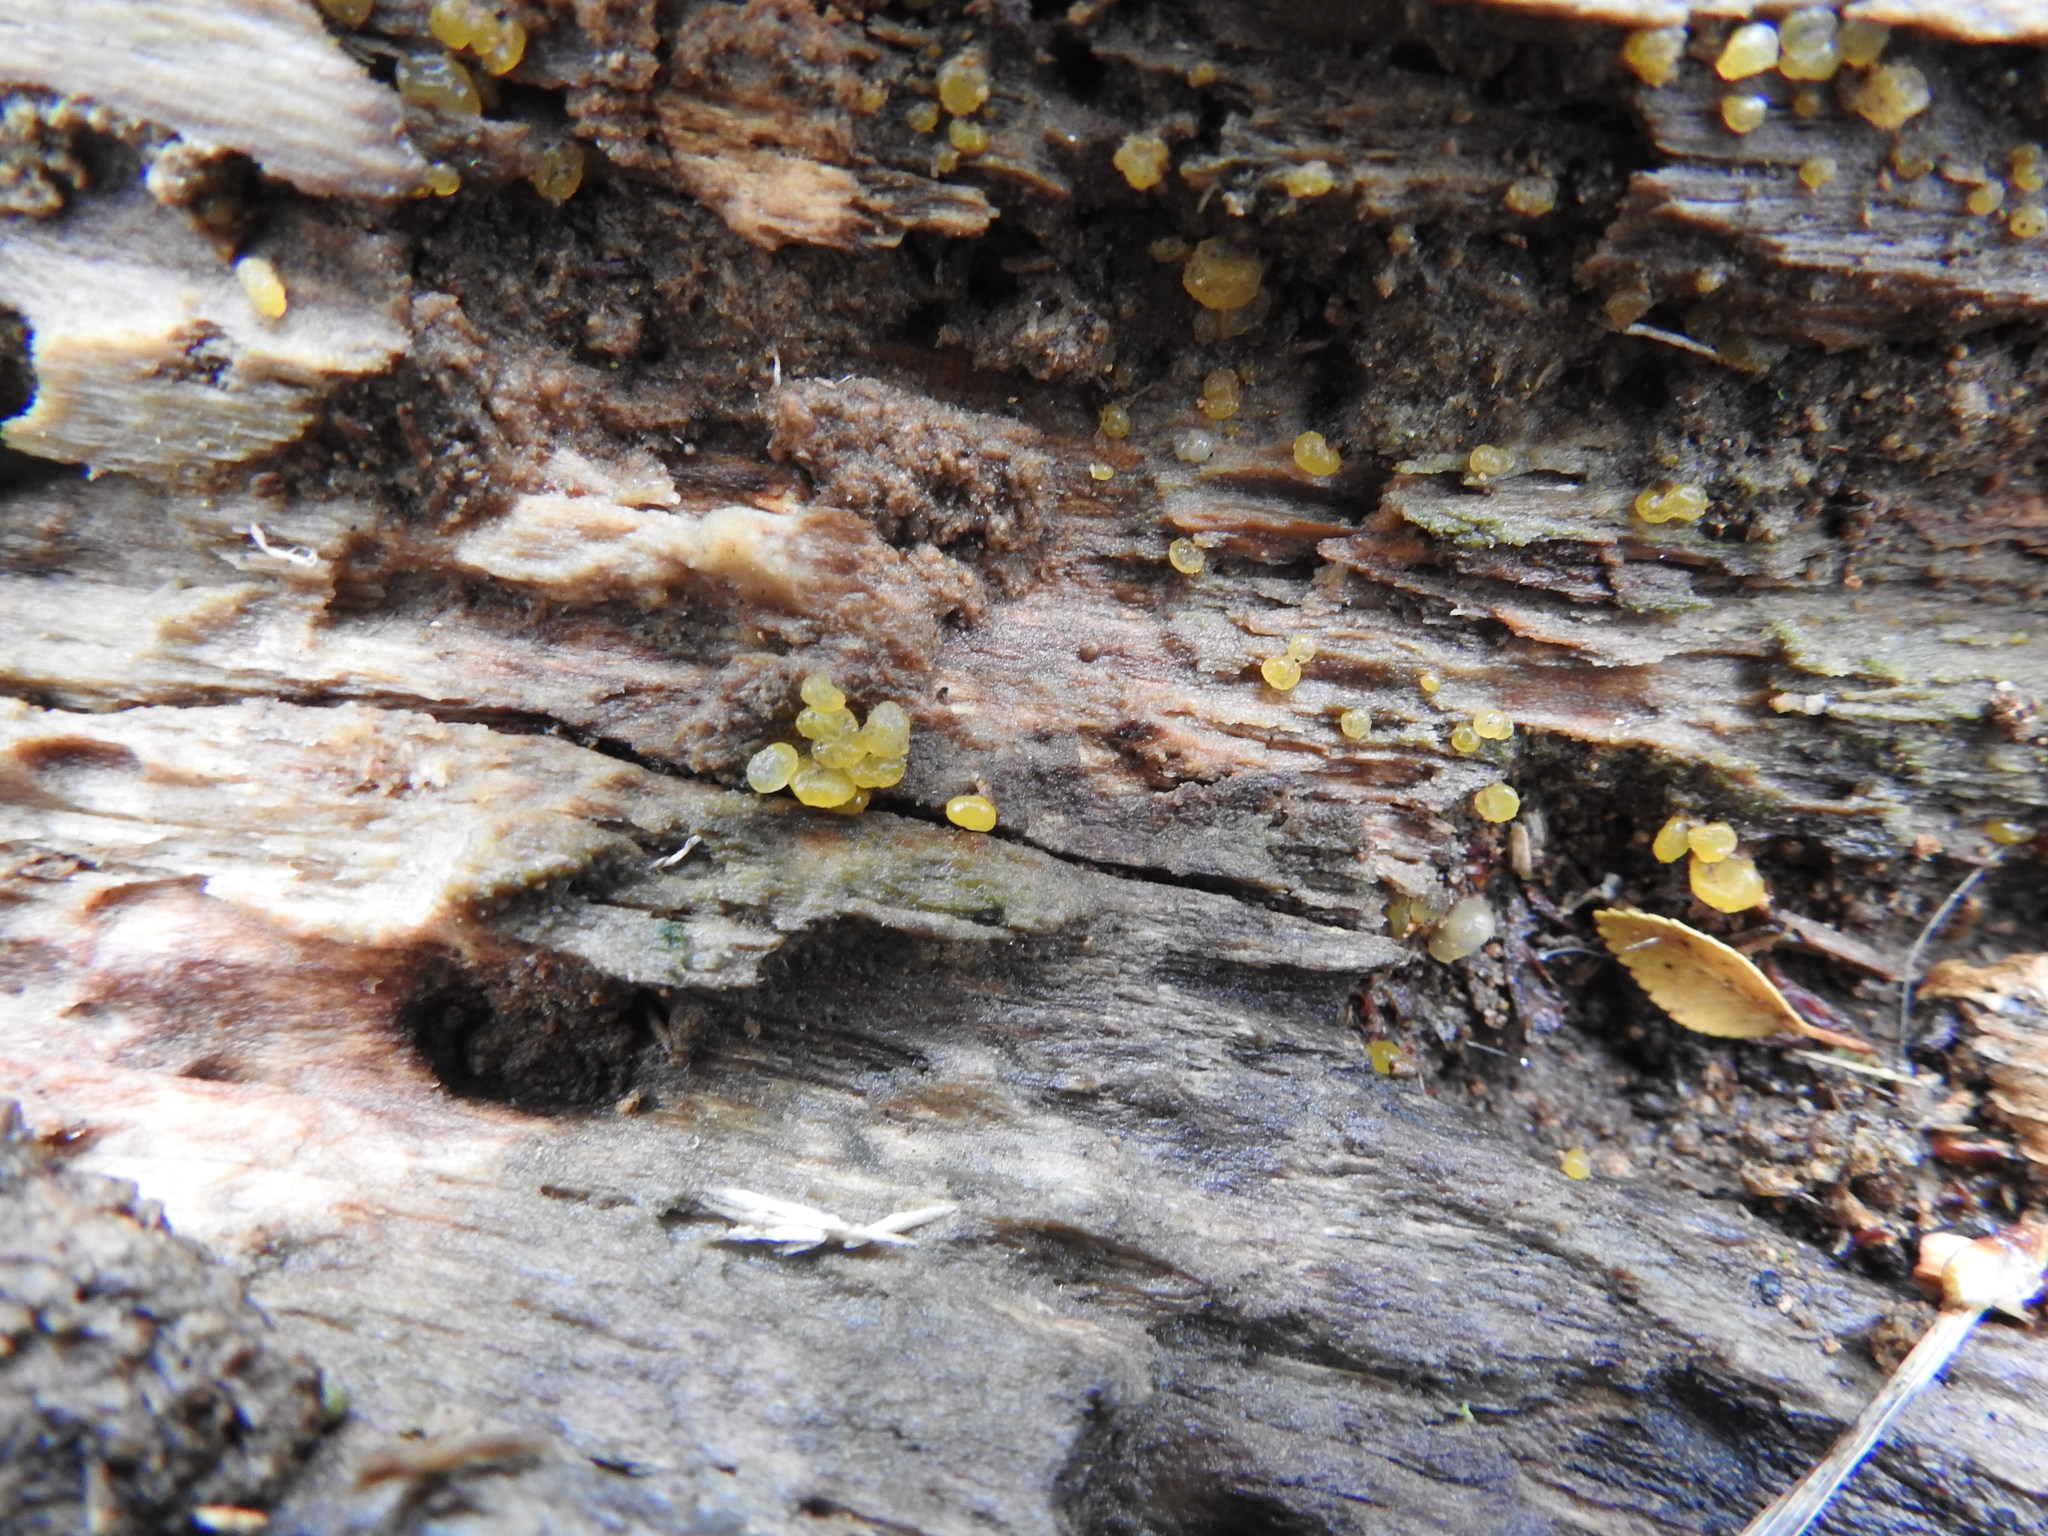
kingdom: Fungi
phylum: Ascomycota
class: Leotiomycetes
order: Helotiales
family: Pezizellaceae
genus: Calycina
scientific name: Calycina citrina
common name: Yellow fairy cups
